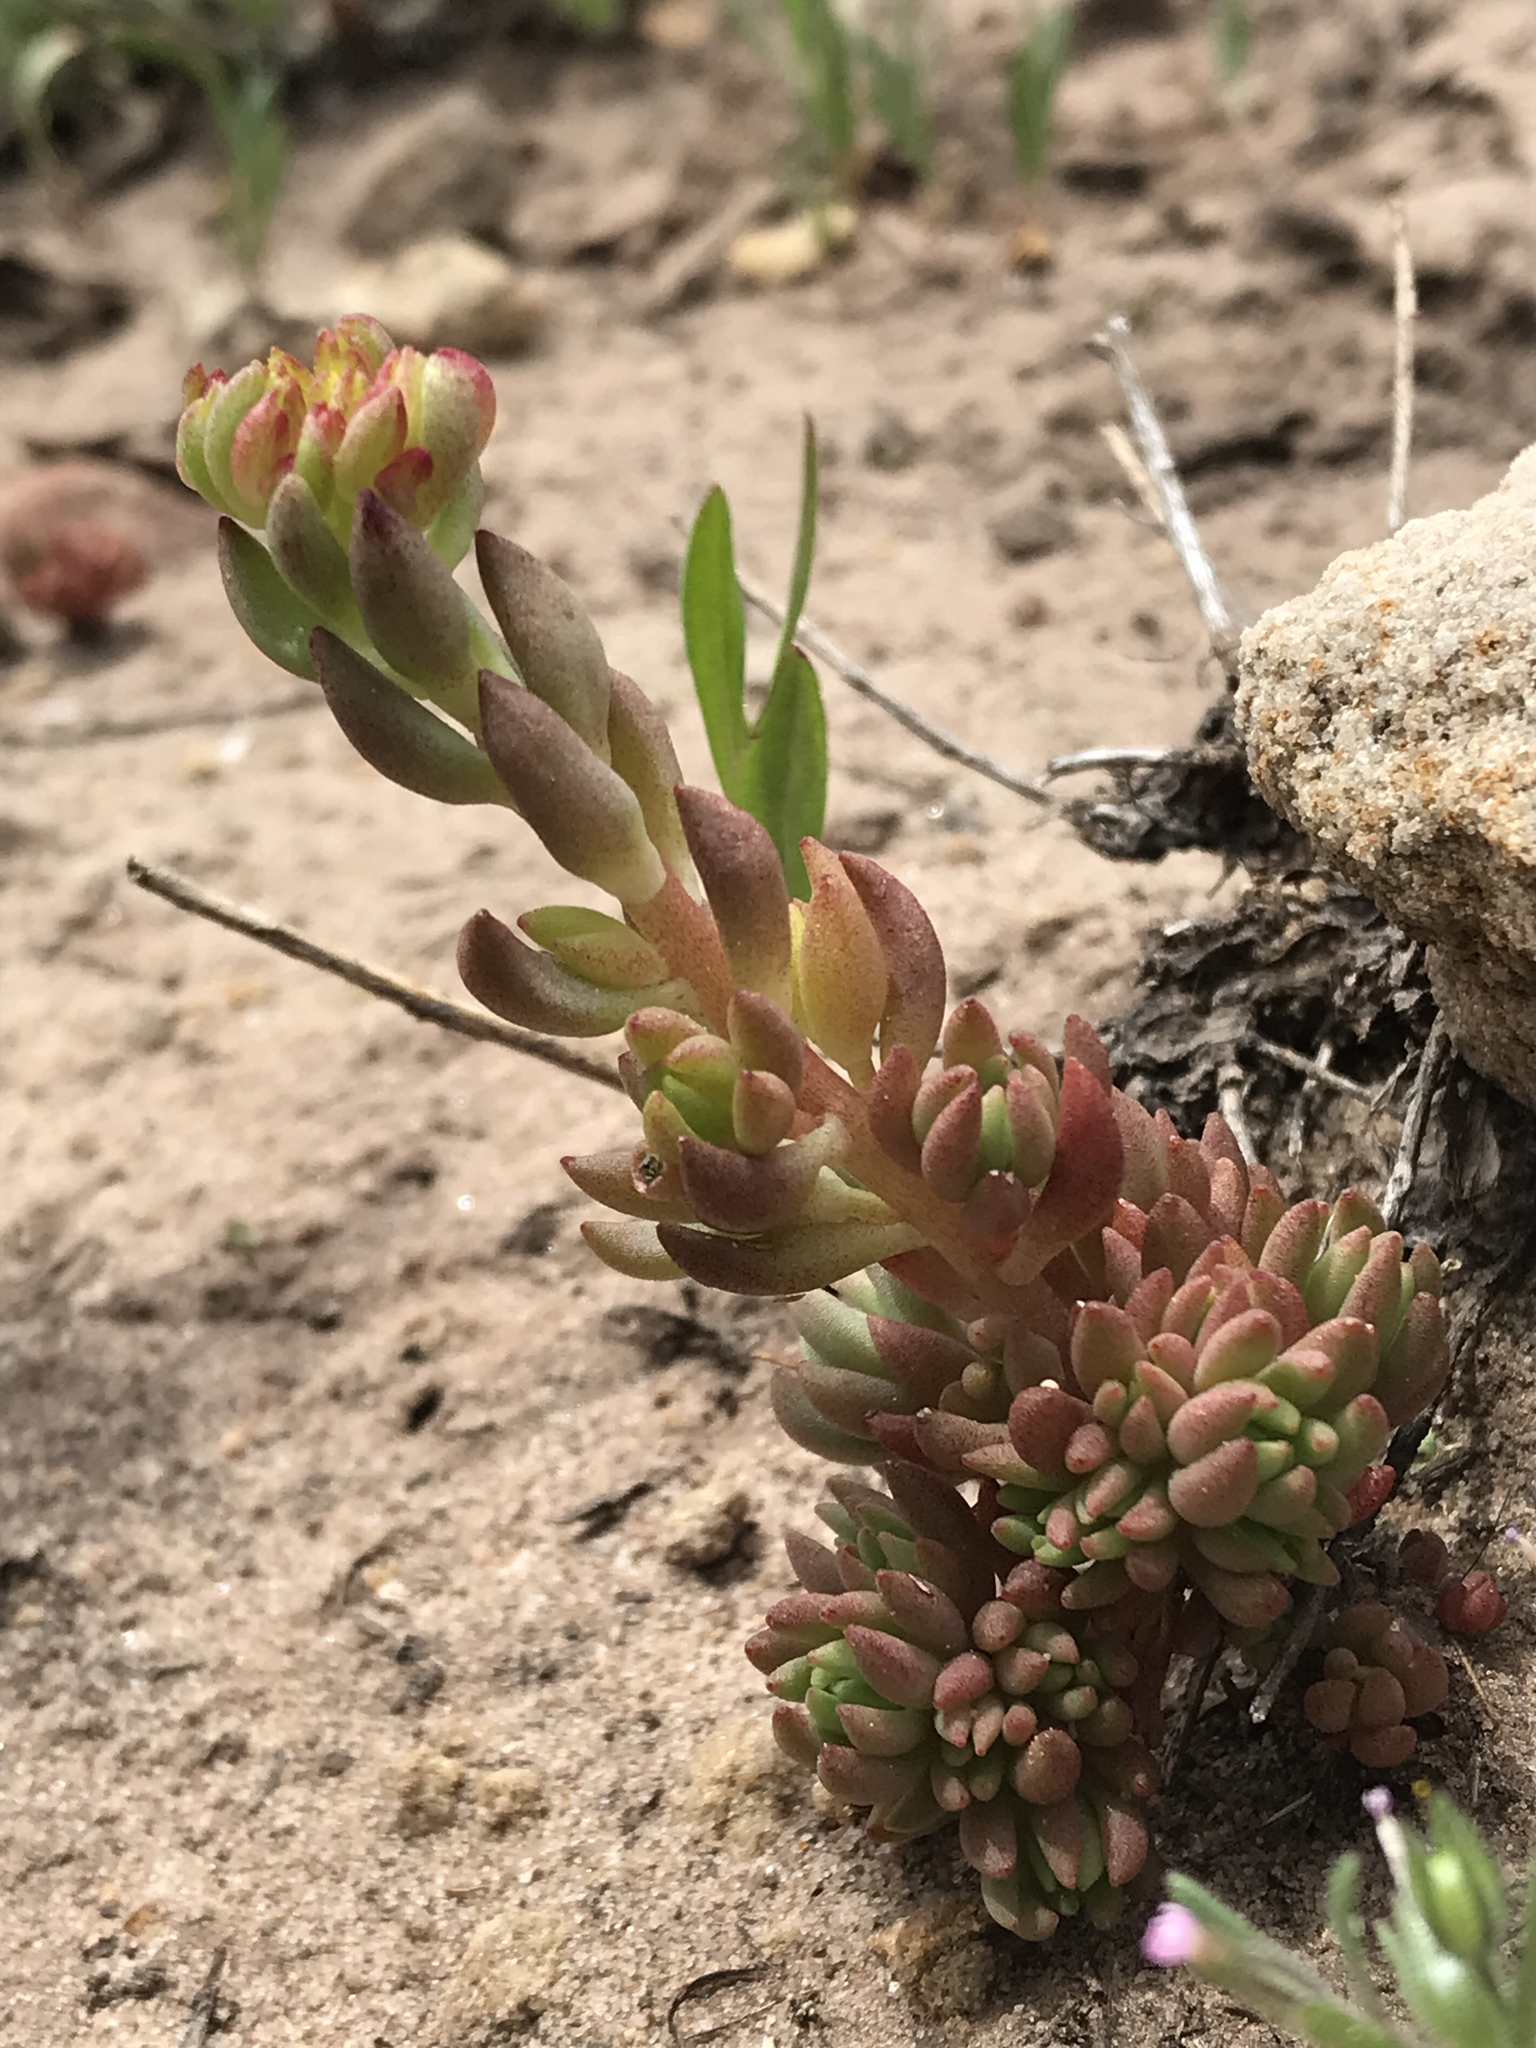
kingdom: Plantae
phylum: Tracheophyta
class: Magnoliopsida
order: Saxifragales
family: Crassulaceae
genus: Sedum
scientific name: Sedum lanceolatum
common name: Common stonecrop
